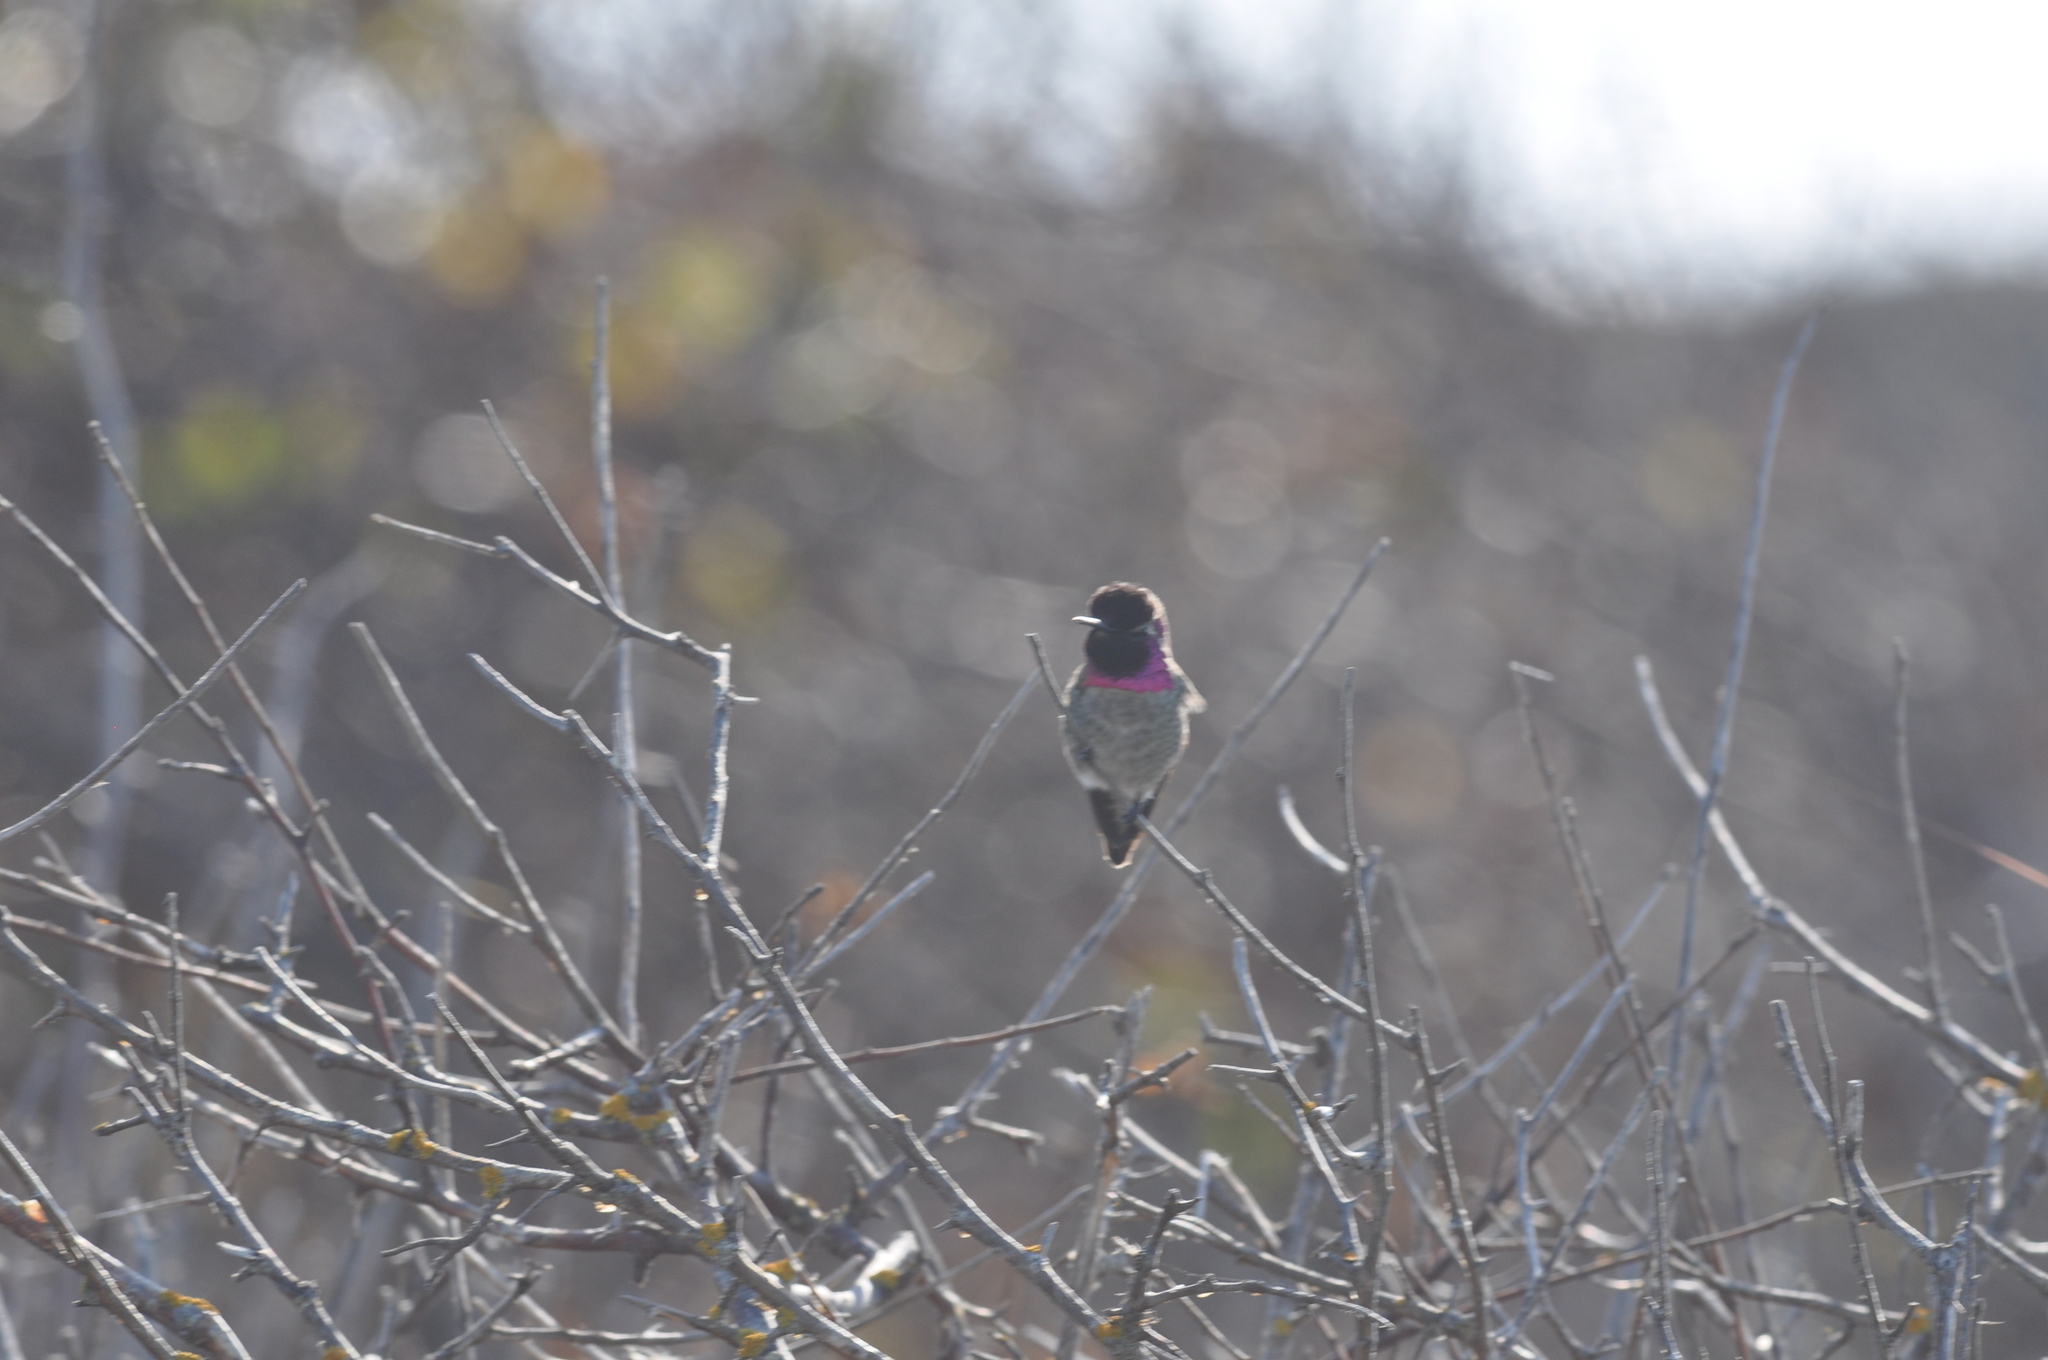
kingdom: Animalia
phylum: Chordata
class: Aves
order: Apodiformes
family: Trochilidae
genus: Calypte
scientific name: Calypte anna
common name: Anna's hummingbird
